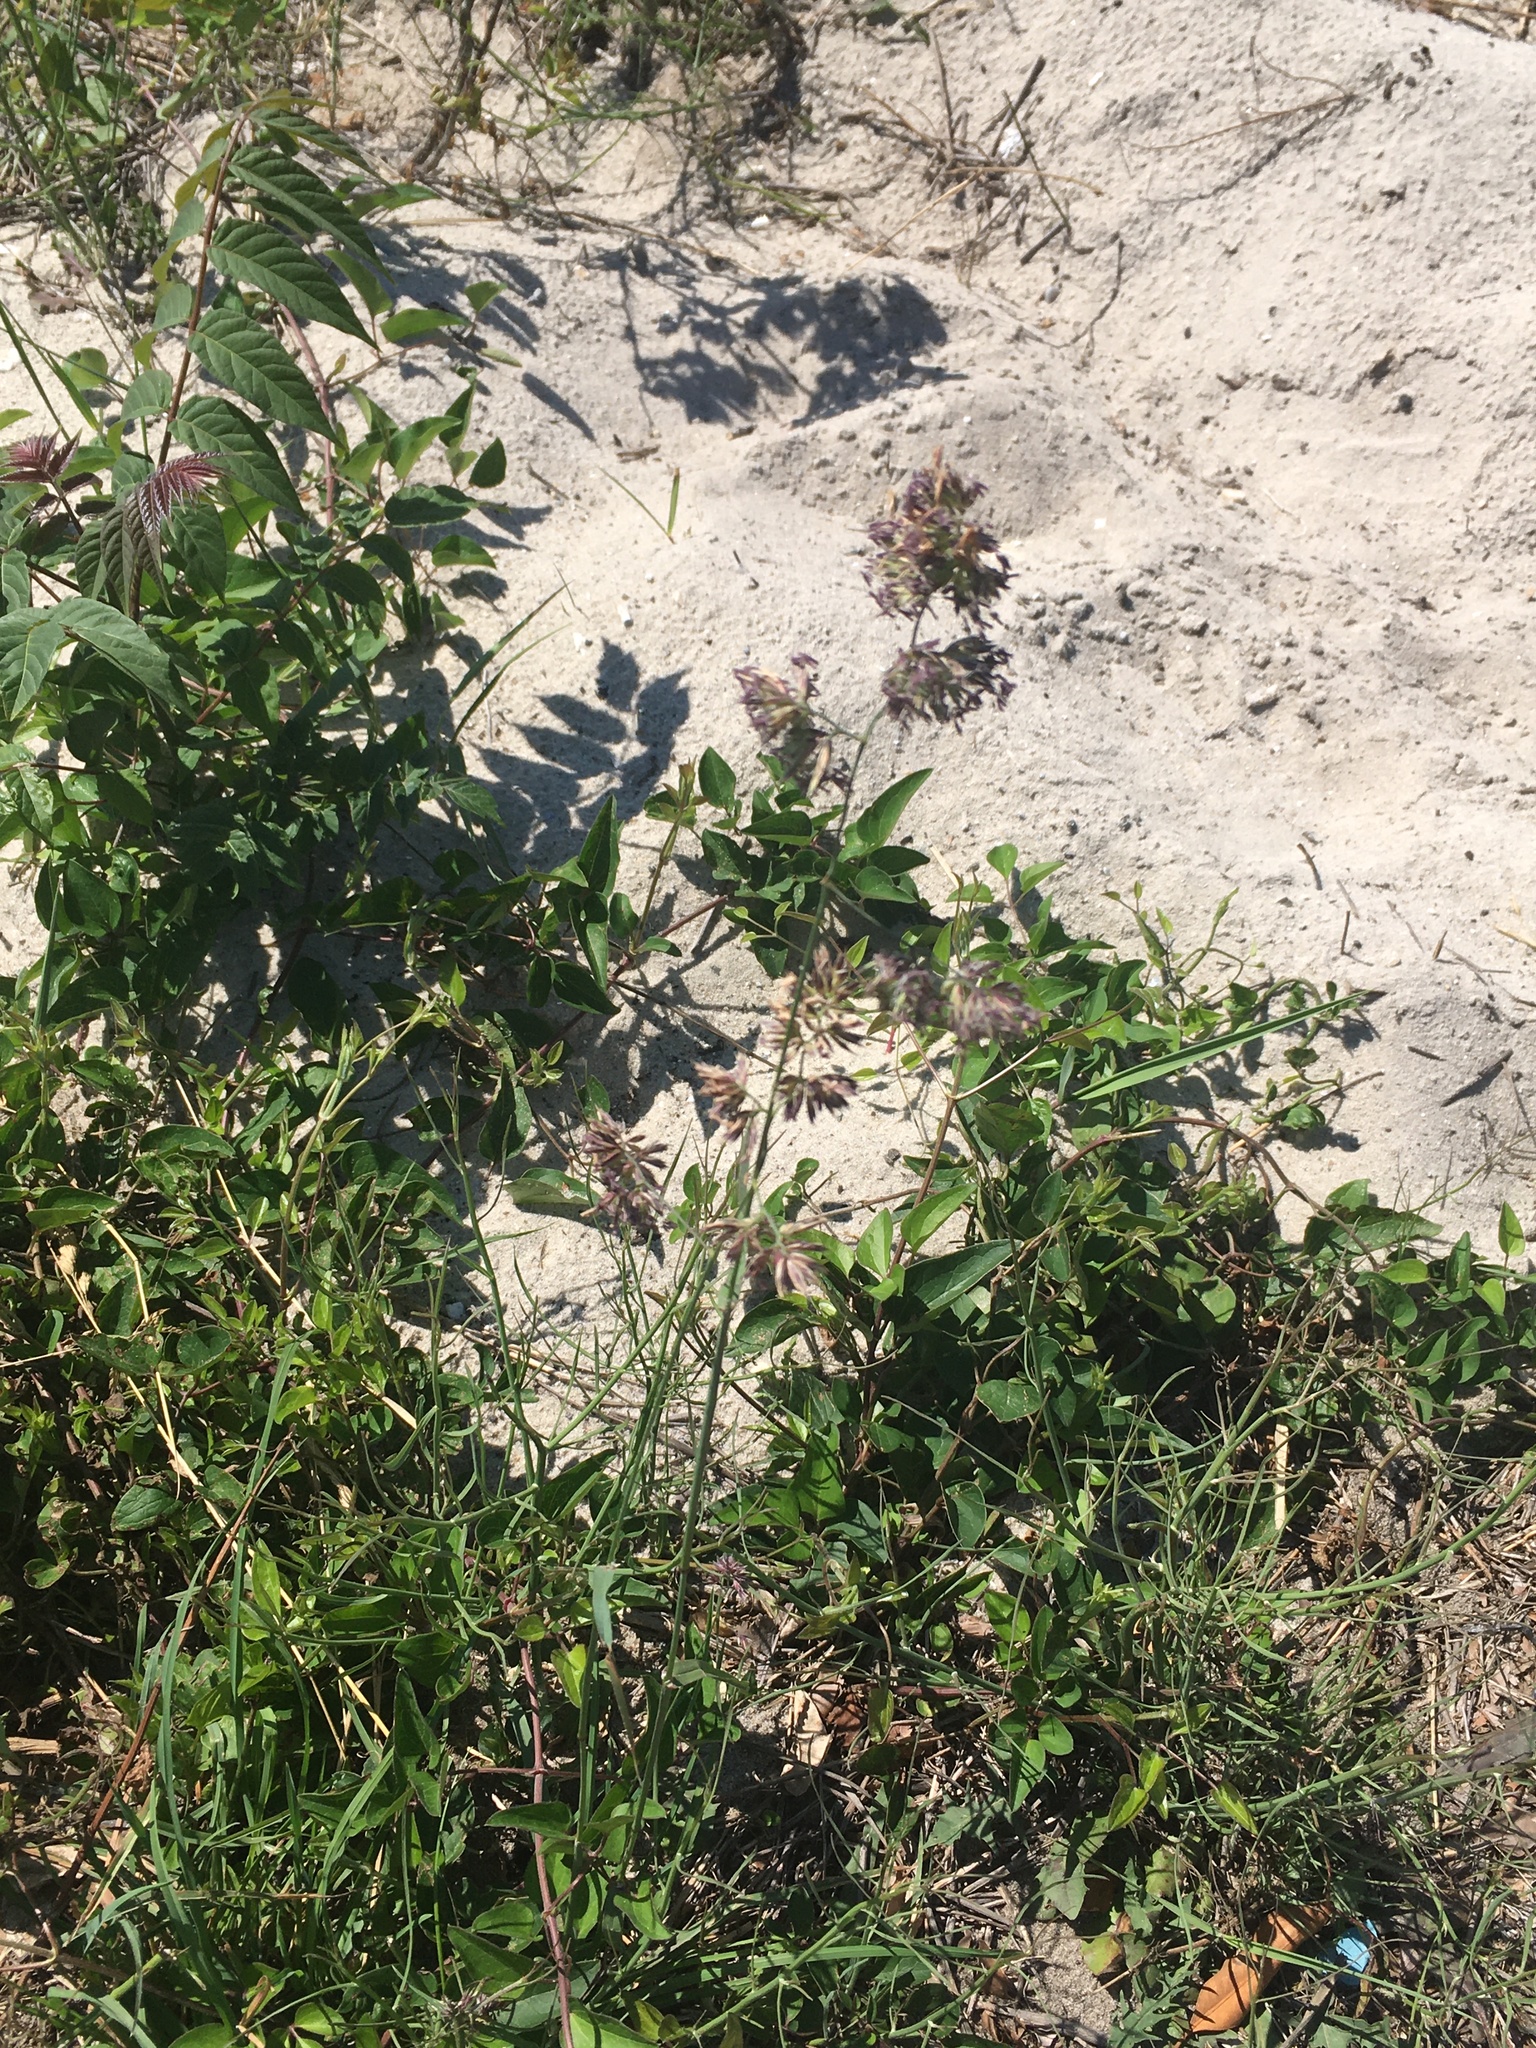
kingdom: Plantae
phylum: Tracheophyta
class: Liliopsida
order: Poales
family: Poaceae
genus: Dactylis
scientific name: Dactylis glomerata
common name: Orchardgrass
